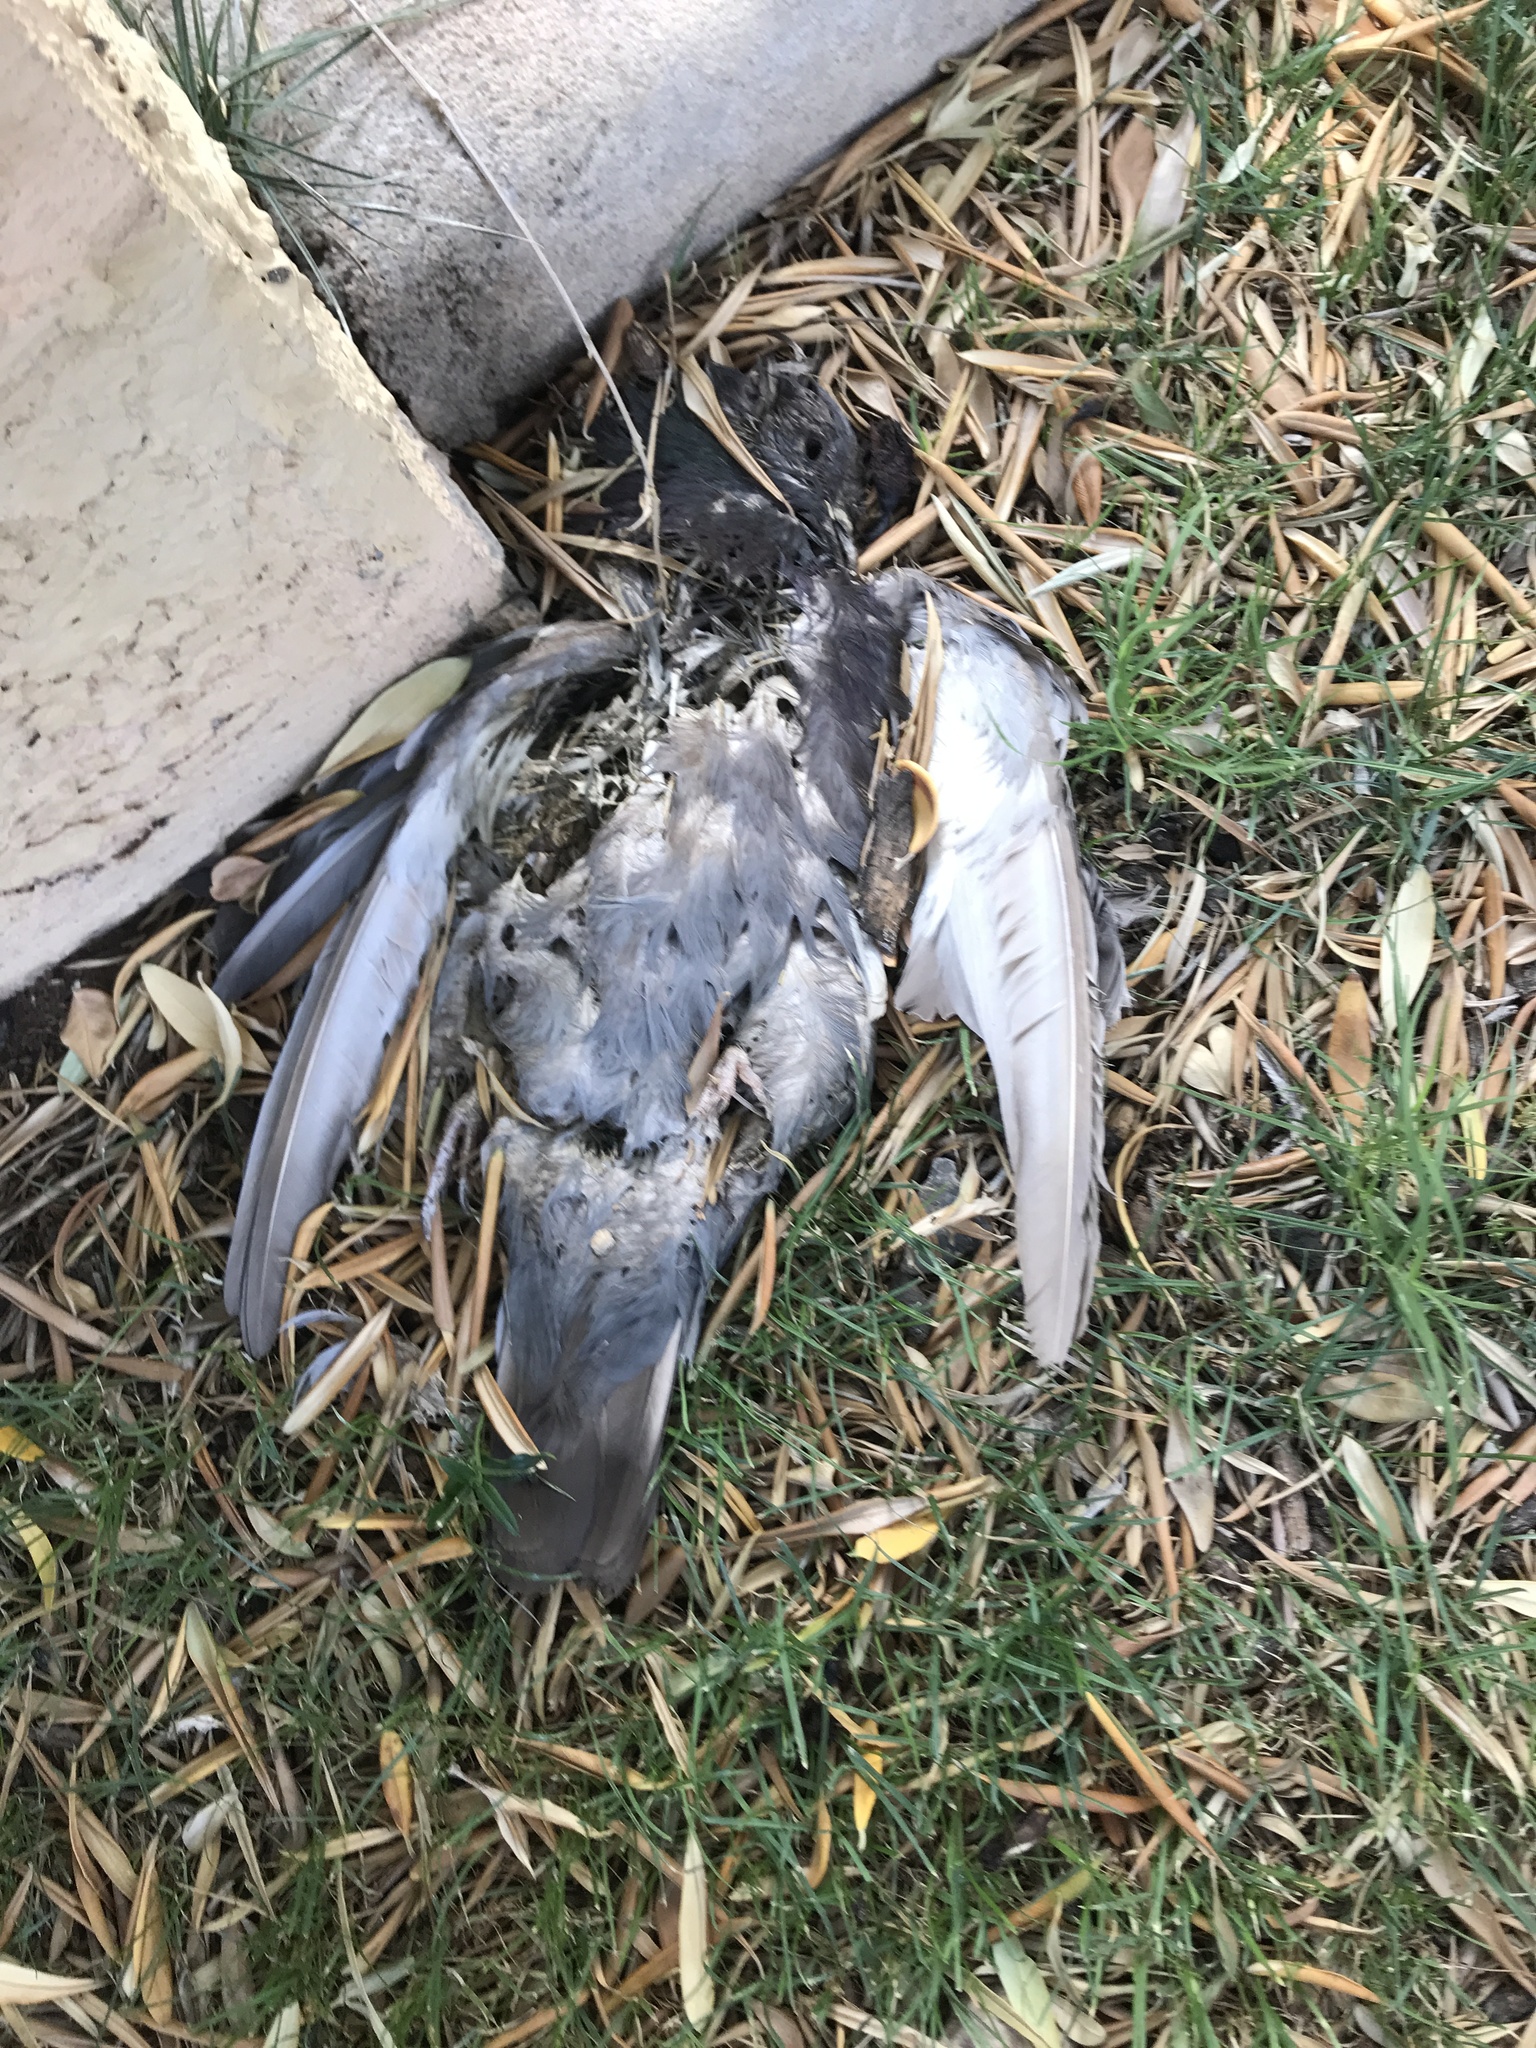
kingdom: Animalia
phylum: Chordata
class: Aves
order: Columbiformes
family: Columbidae
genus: Columba
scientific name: Columba livia
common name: Rock pigeon
